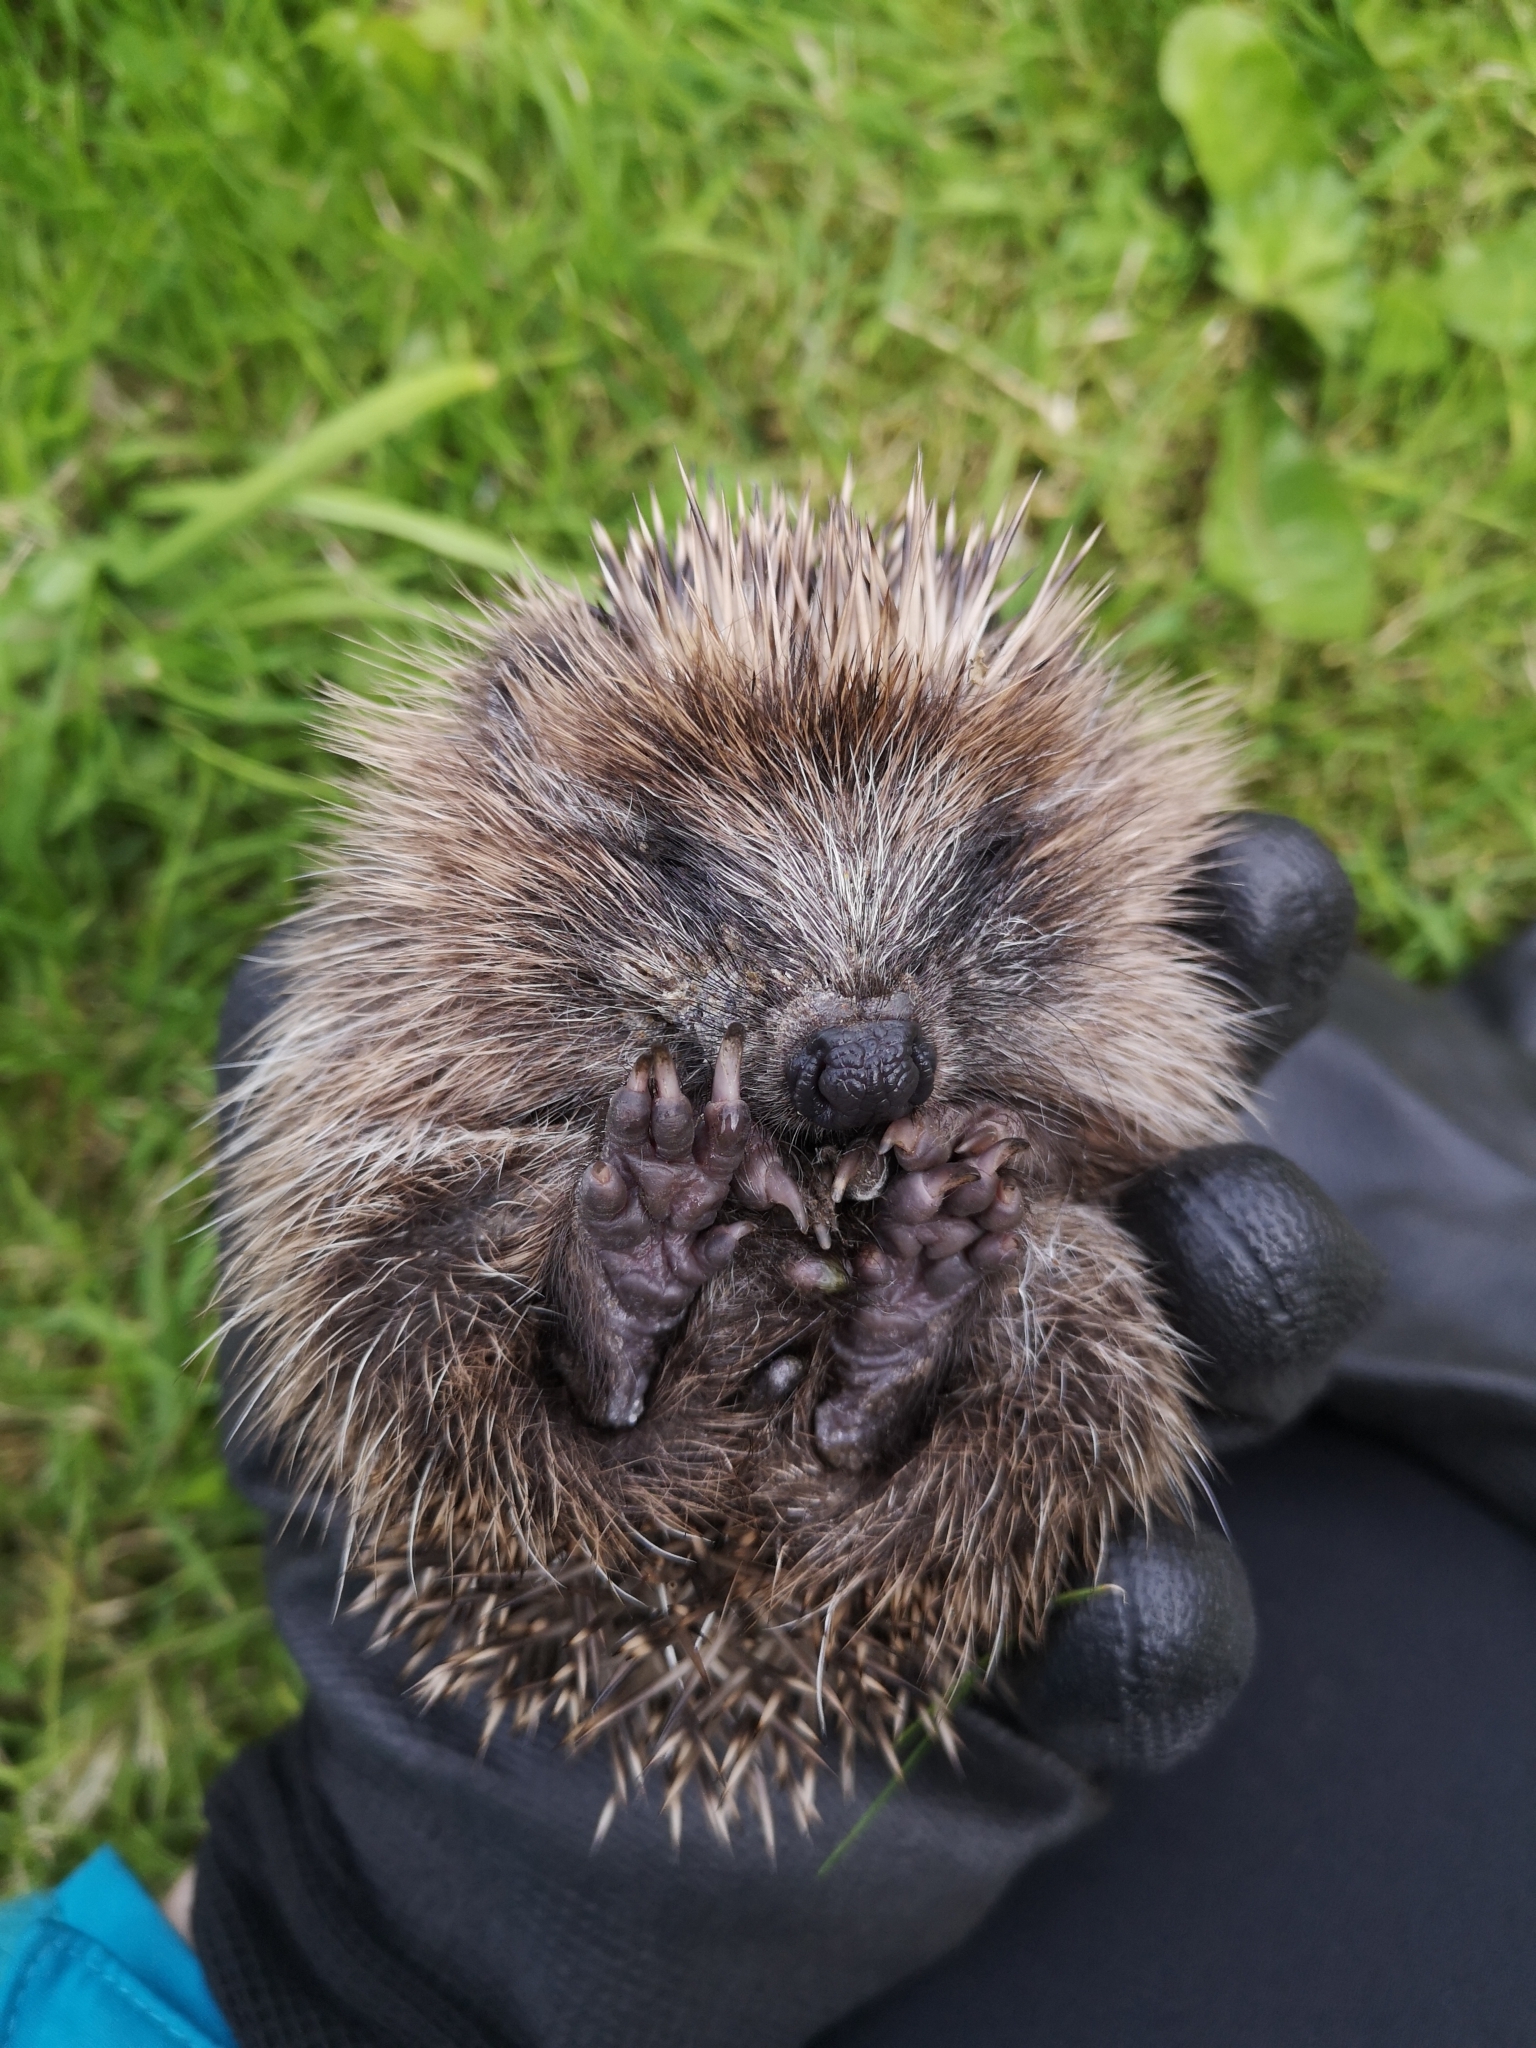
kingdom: Animalia
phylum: Chordata
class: Mammalia
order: Erinaceomorpha
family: Erinaceidae
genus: Erinaceus
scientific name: Erinaceus europaeus
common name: West european hedgehog
